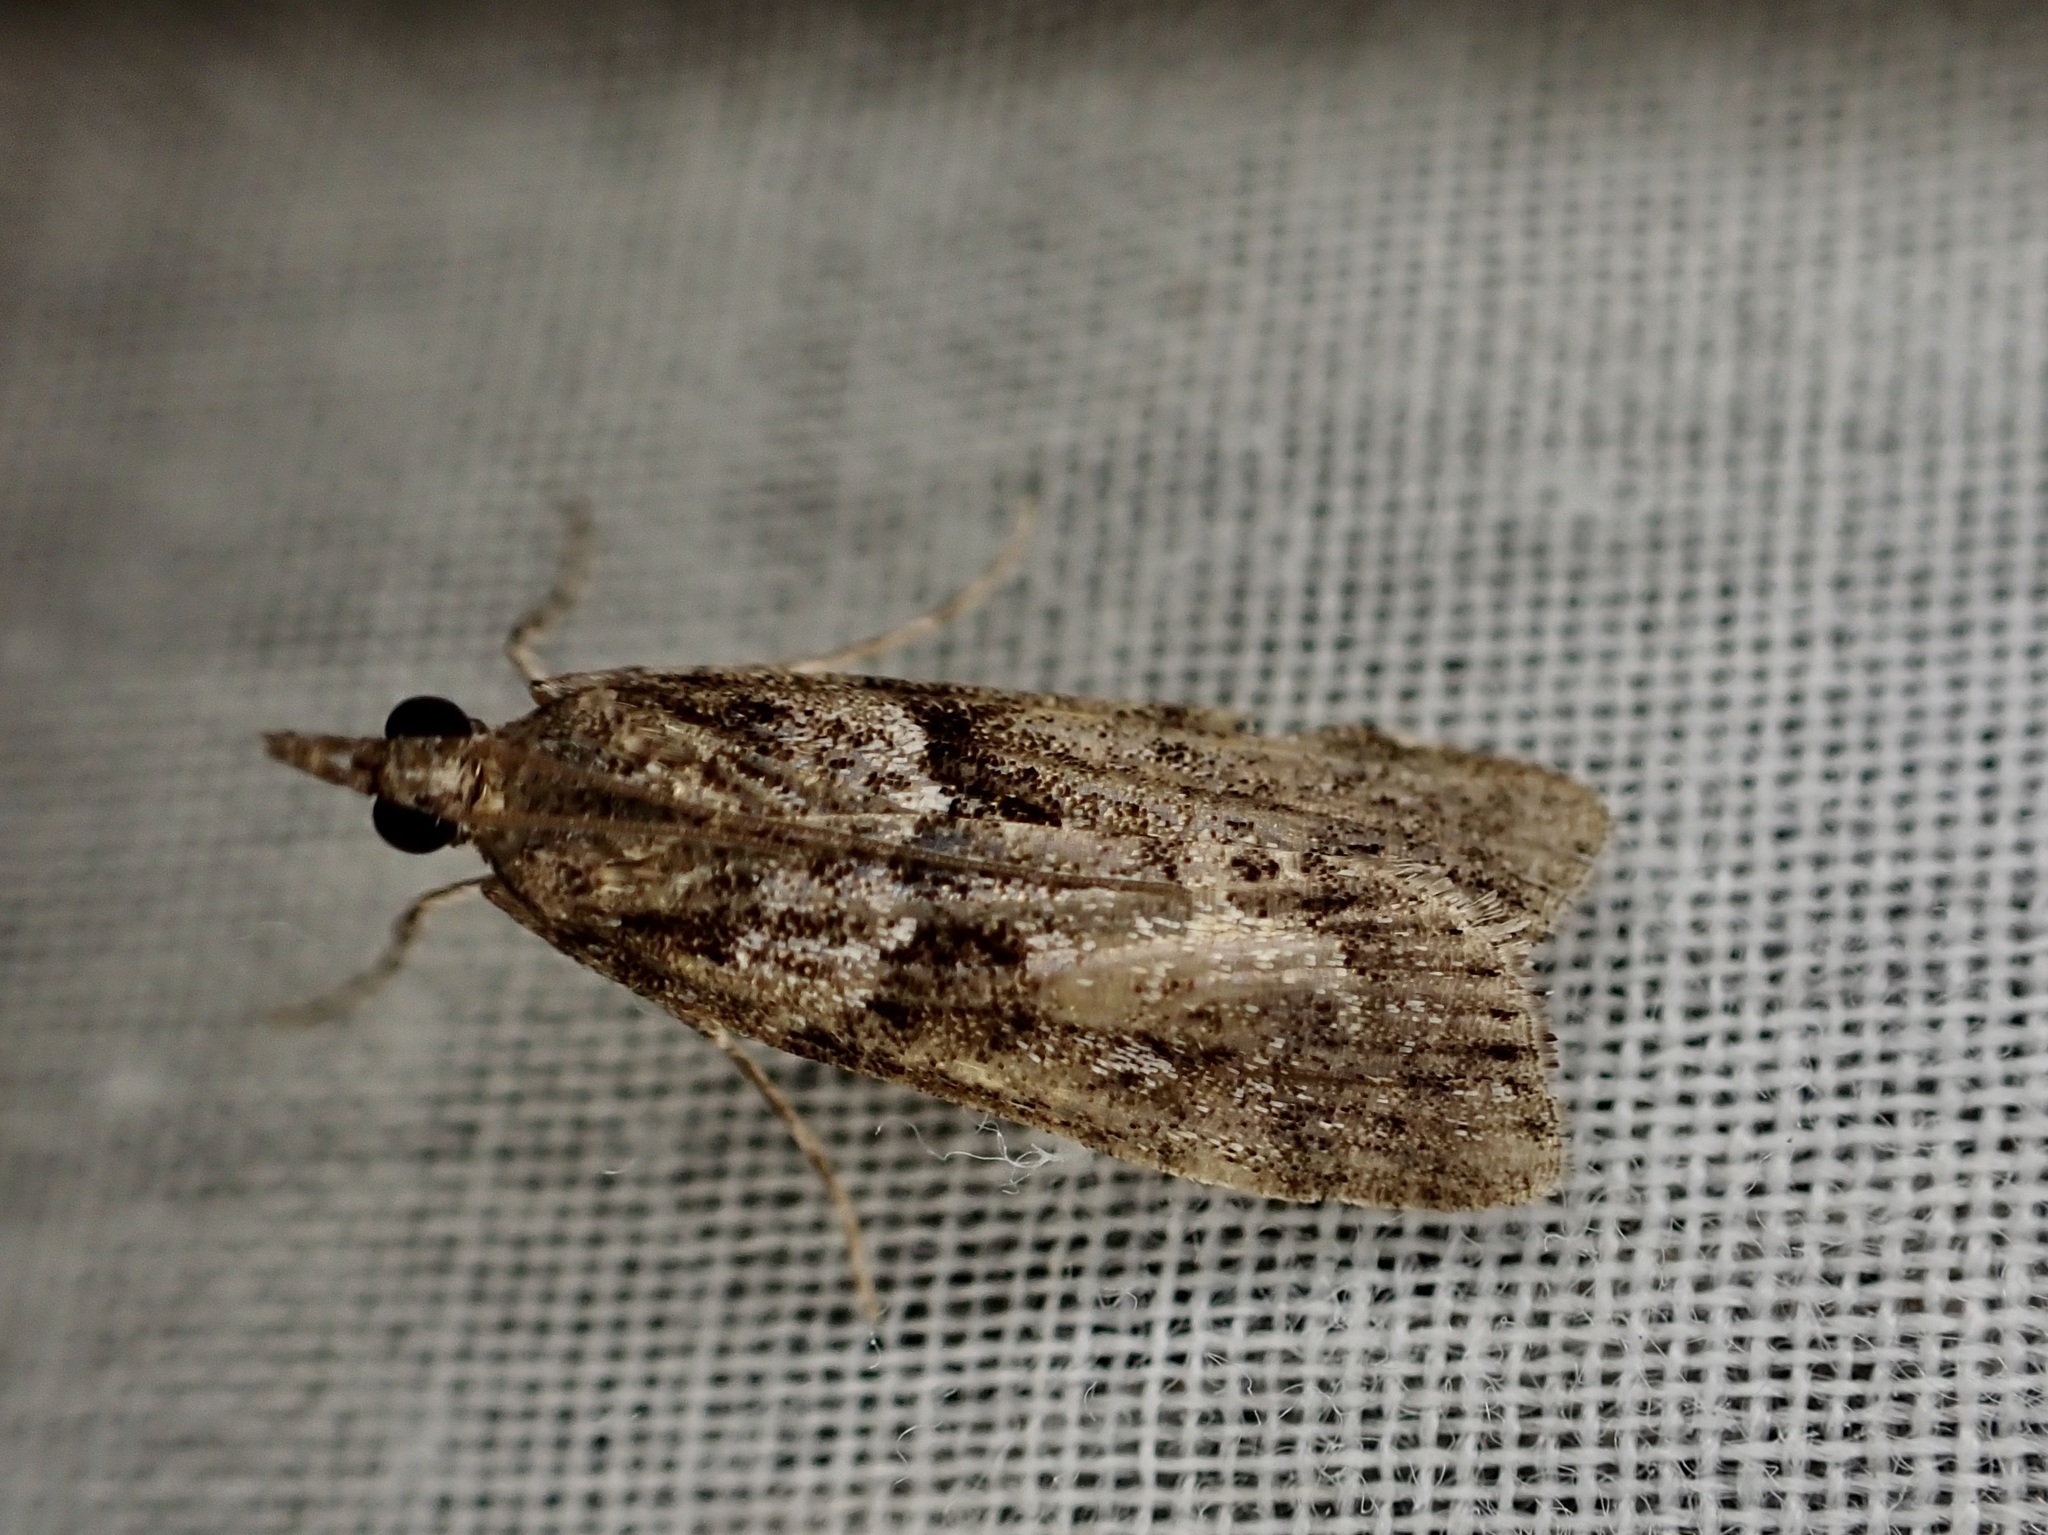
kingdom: Animalia
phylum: Arthropoda
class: Insecta
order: Lepidoptera
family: Crambidae
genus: Eudonia
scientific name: Eudonia submarginalis
